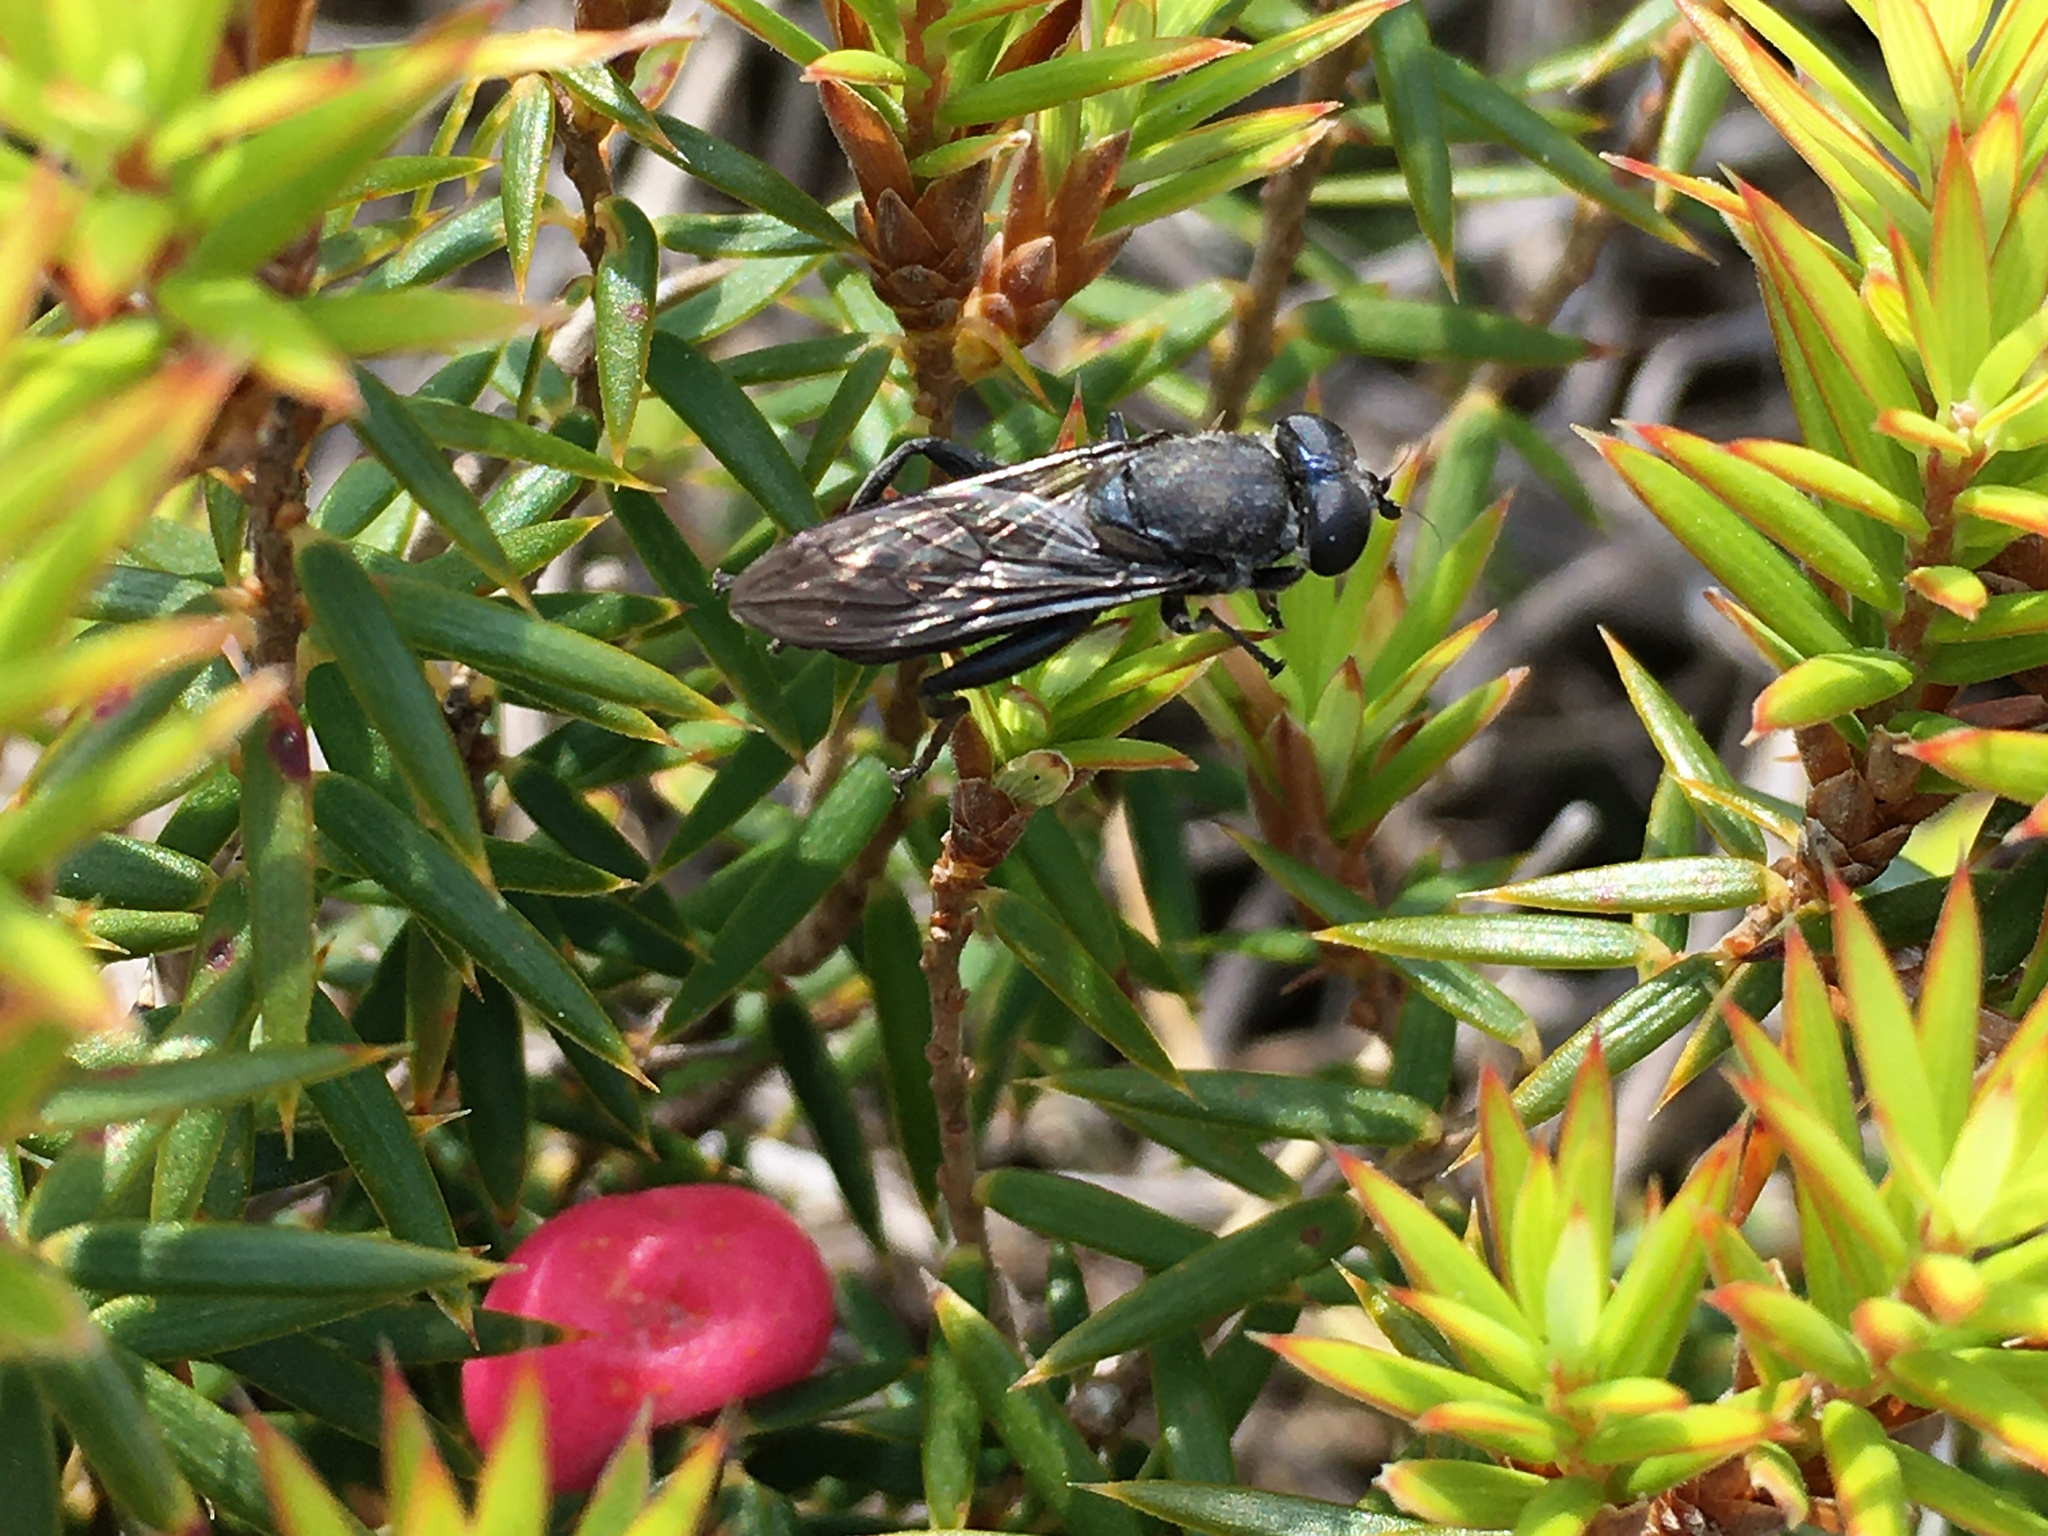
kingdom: Animalia
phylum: Arthropoda
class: Insecta
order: Diptera
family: Syrphidae
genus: Xylota
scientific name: Xylota flavitarsis
